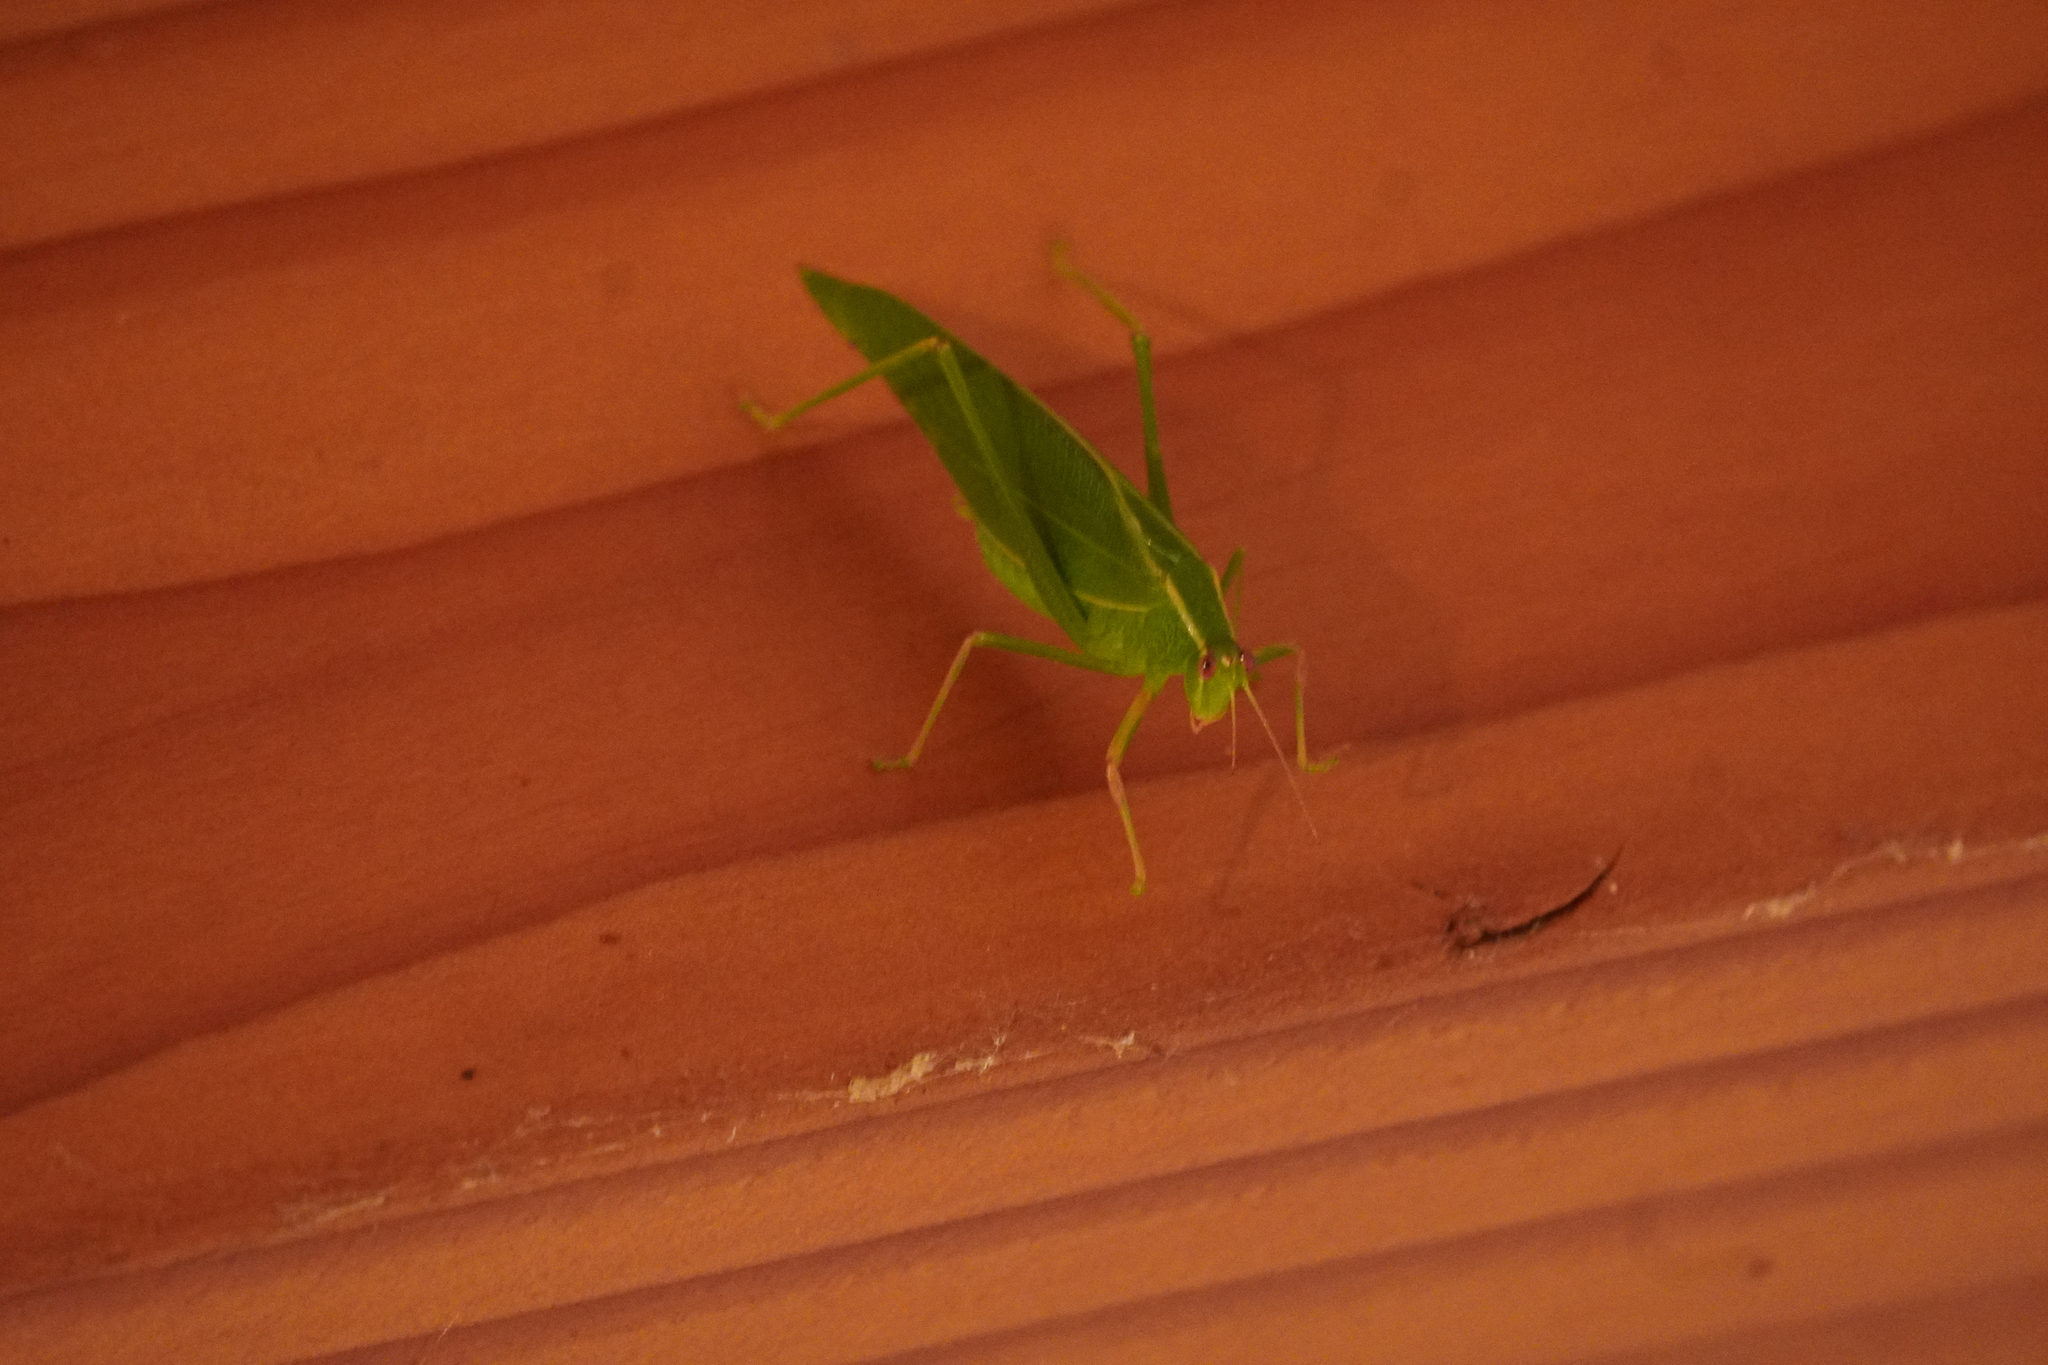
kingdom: Animalia
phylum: Arthropoda
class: Insecta
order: Orthoptera
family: Tettigoniidae
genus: Caedicia
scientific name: Caedicia simplex
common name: Common garden katydid
